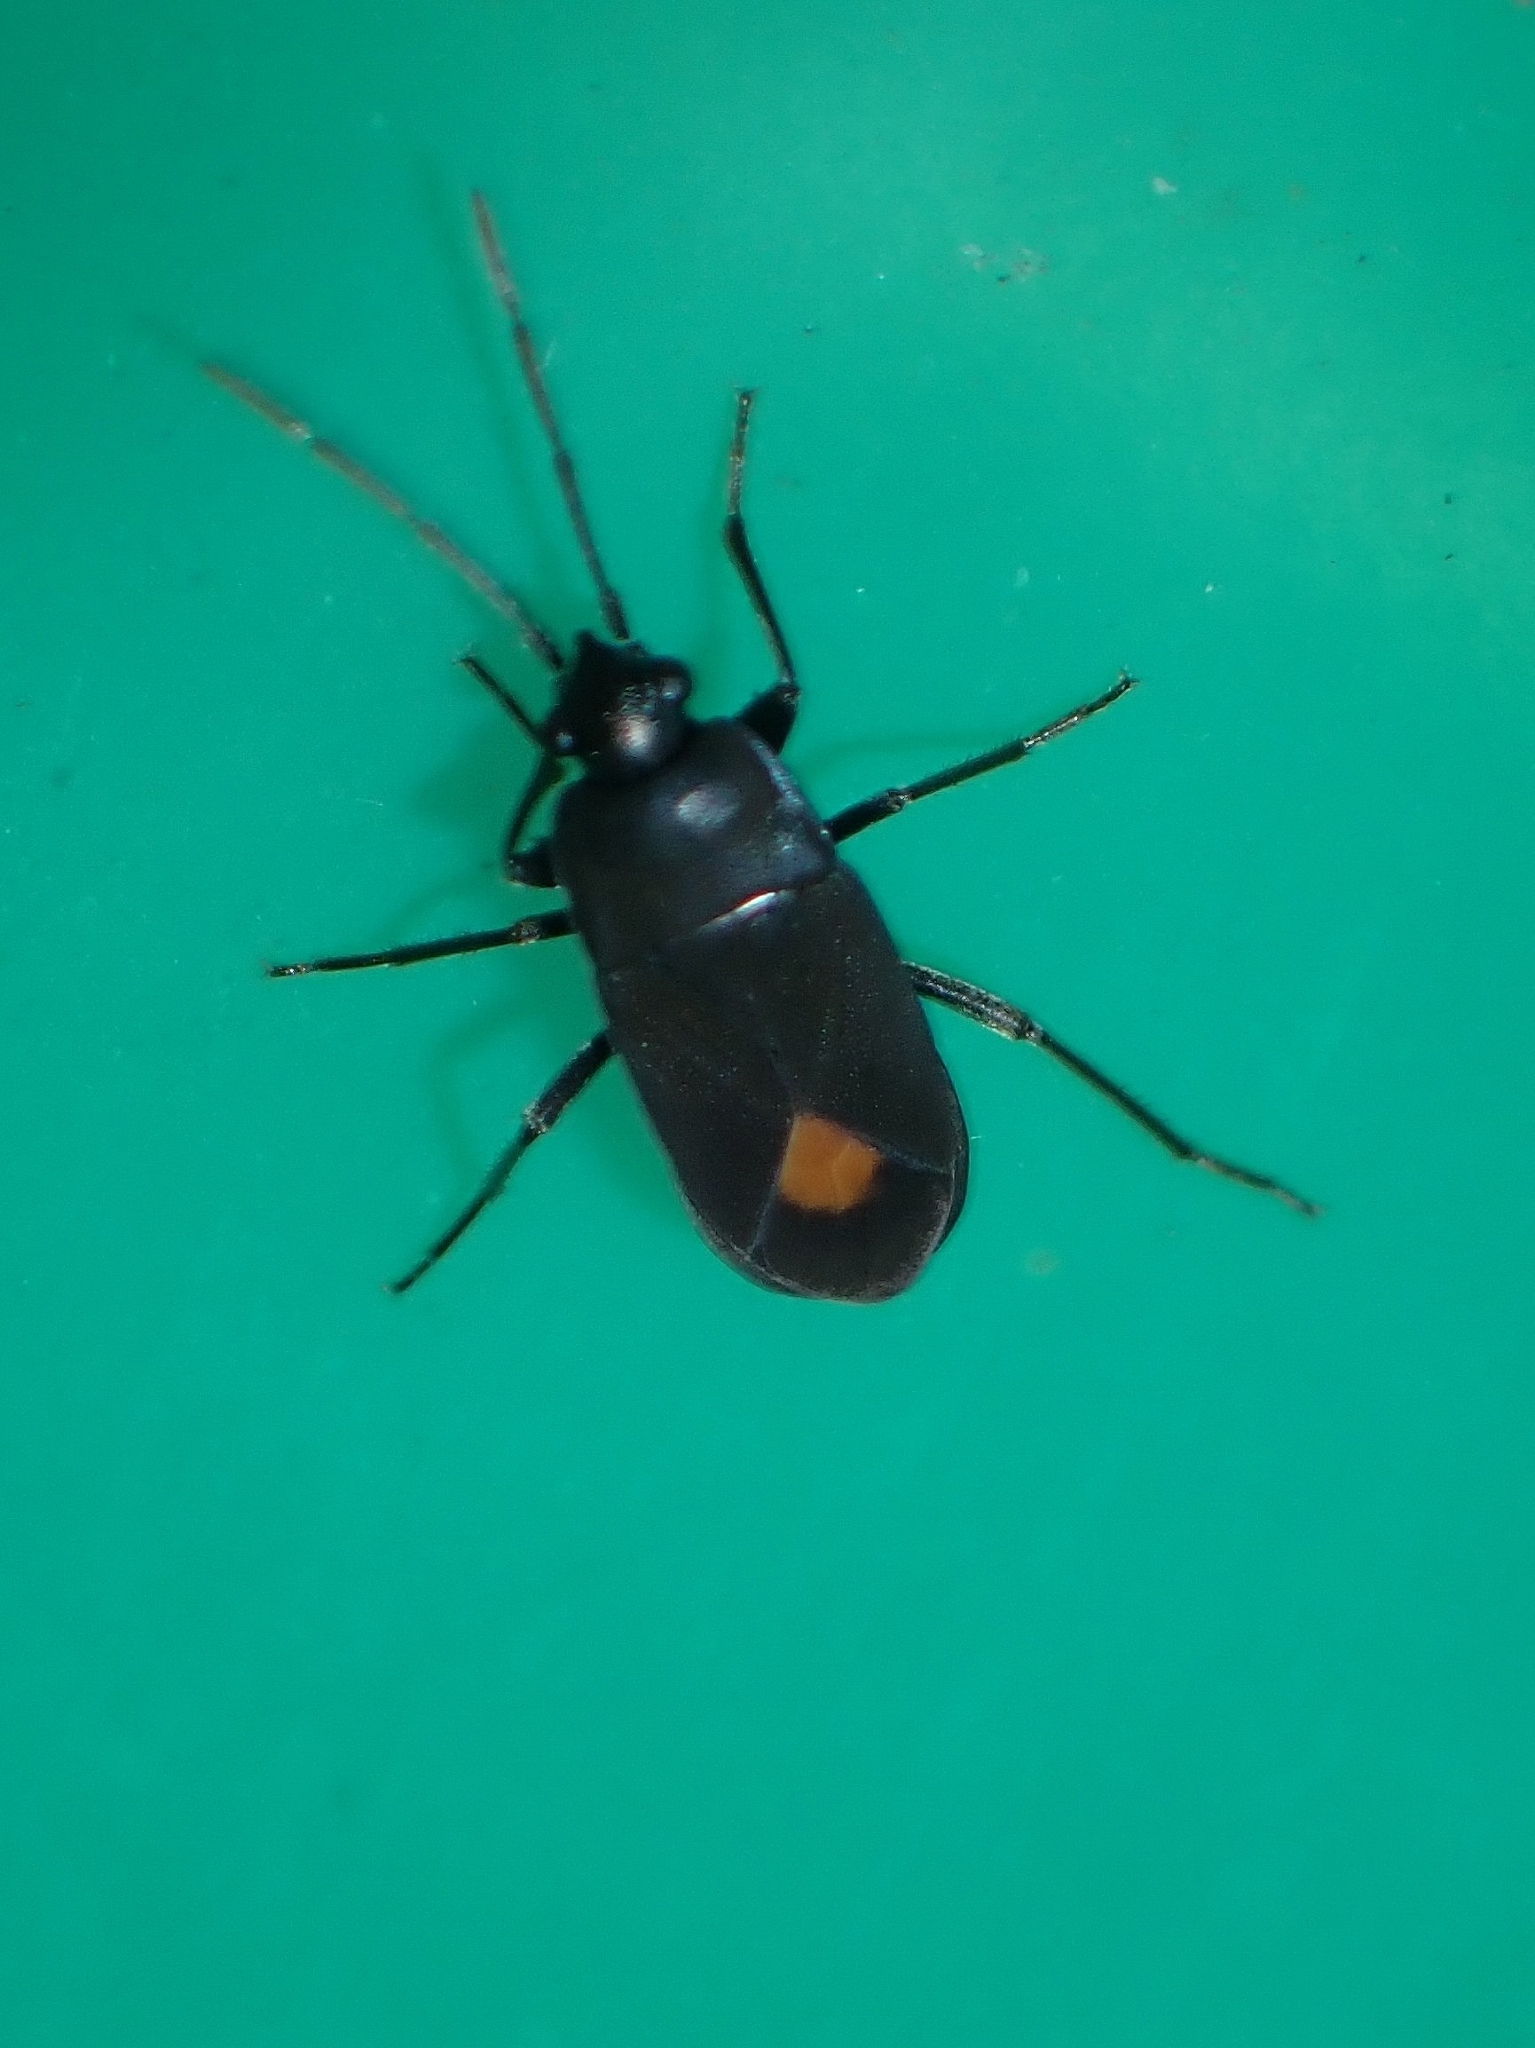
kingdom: Animalia
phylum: Arthropoda
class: Insecta
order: Hemiptera
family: Rhyparochromidae
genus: Aphanus
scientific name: Aphanus rolandri
